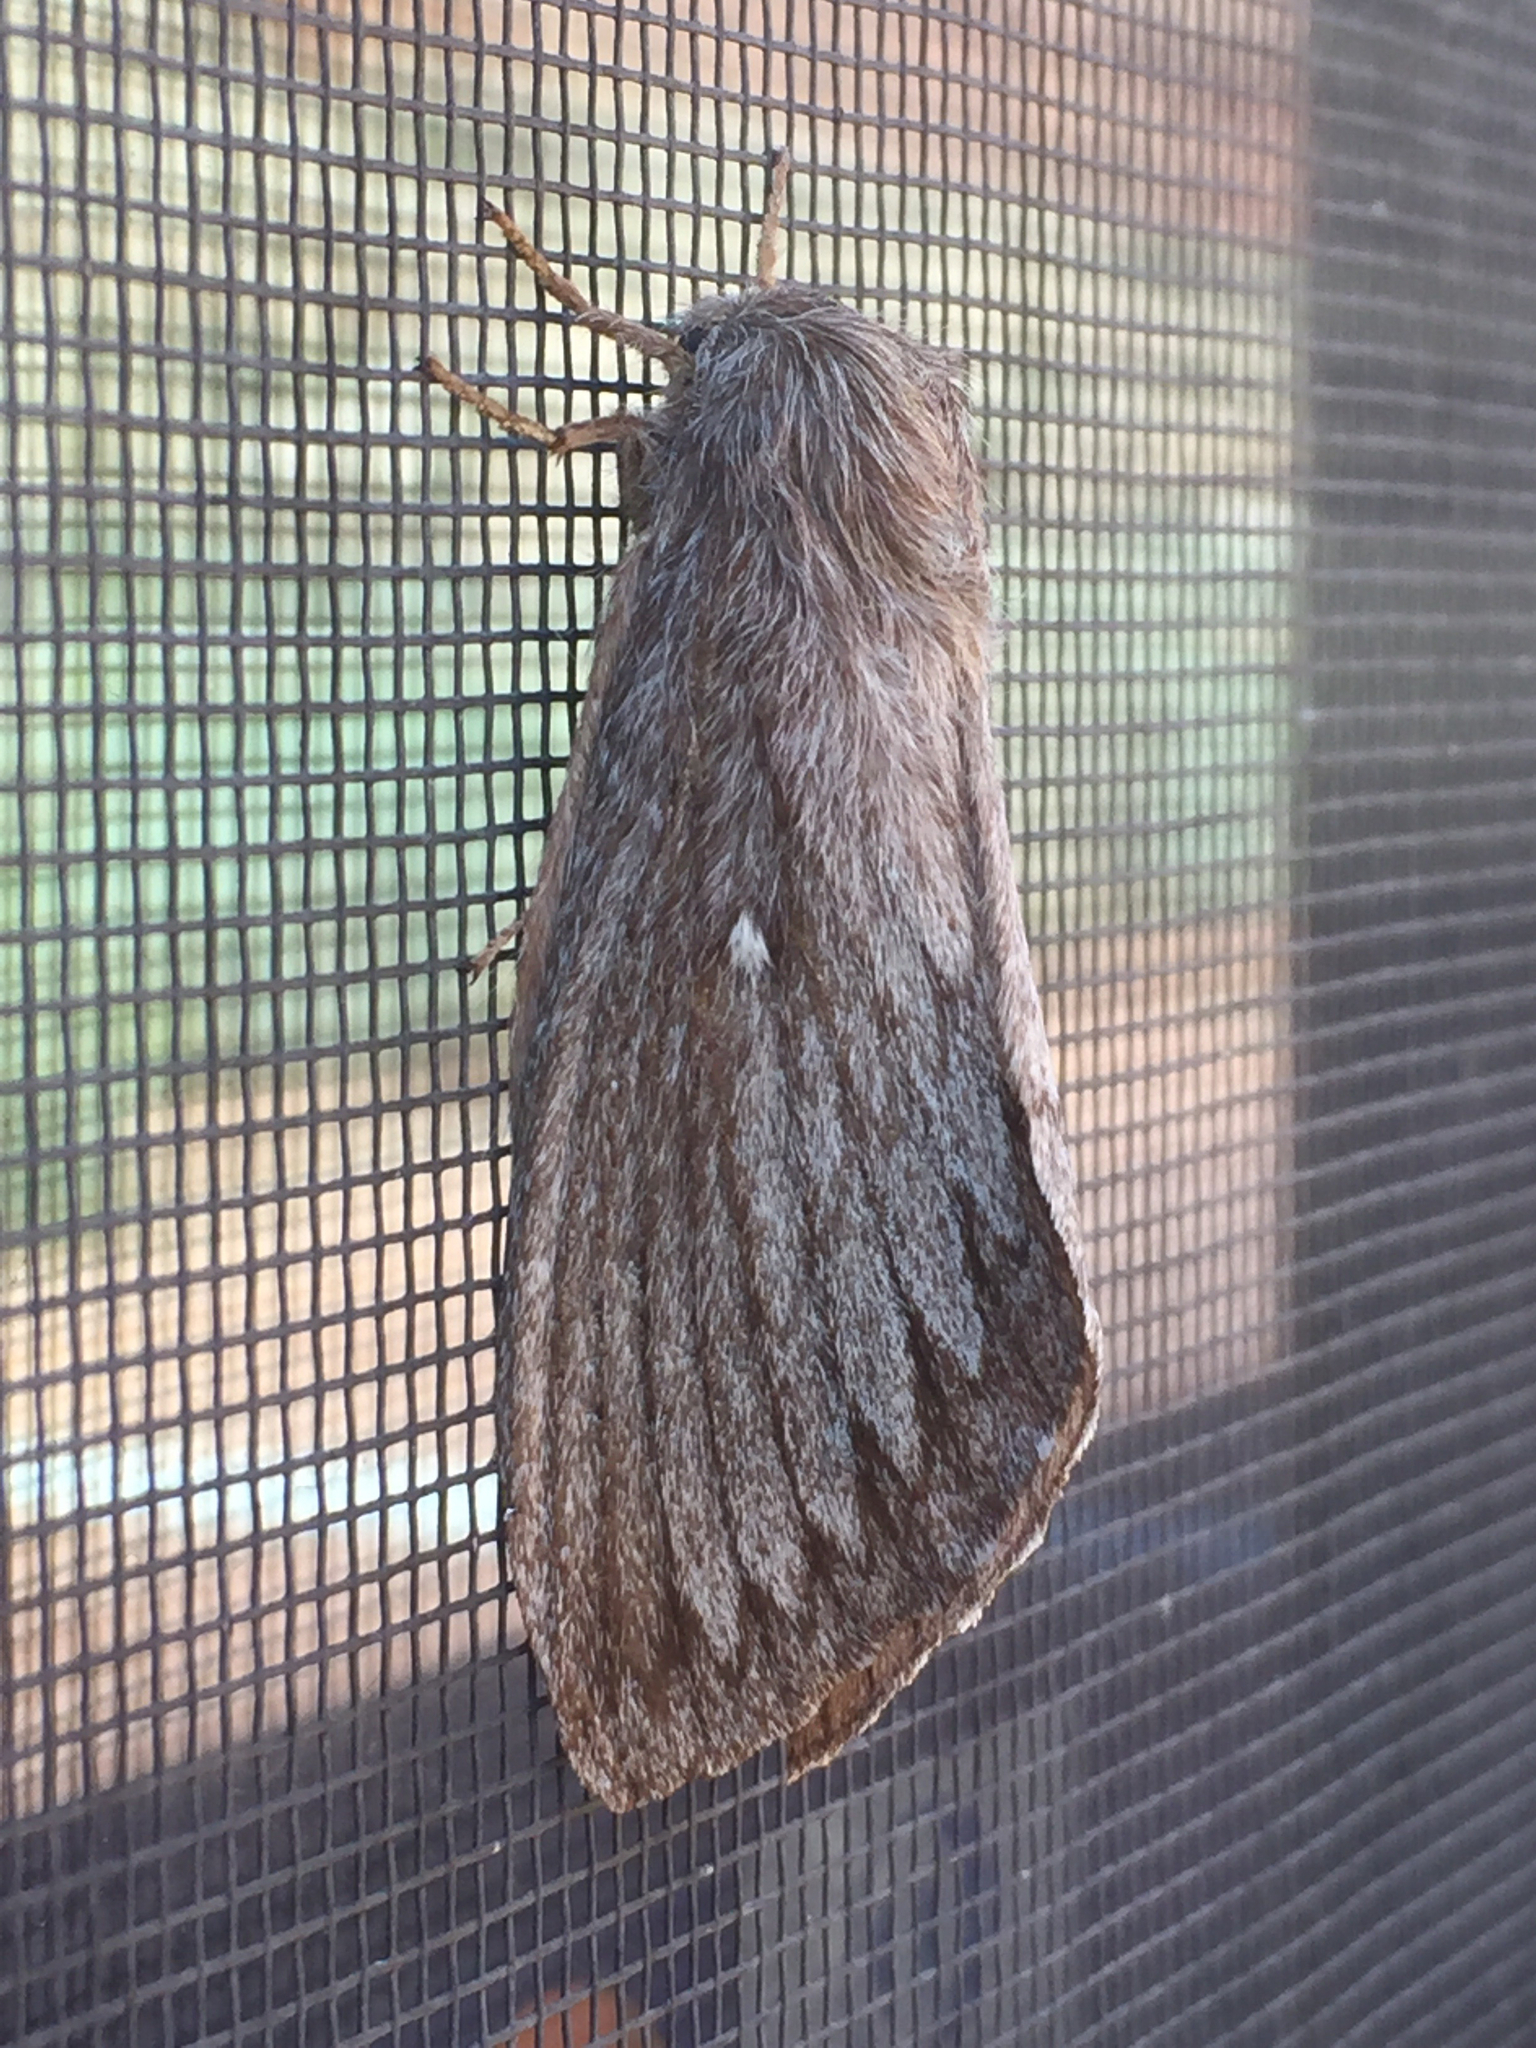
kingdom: Animalia
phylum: Arthropoda
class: Insecta
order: Lepidoptera
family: Lasiocampidae
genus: Gloveria
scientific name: Gloveria arizonensis
